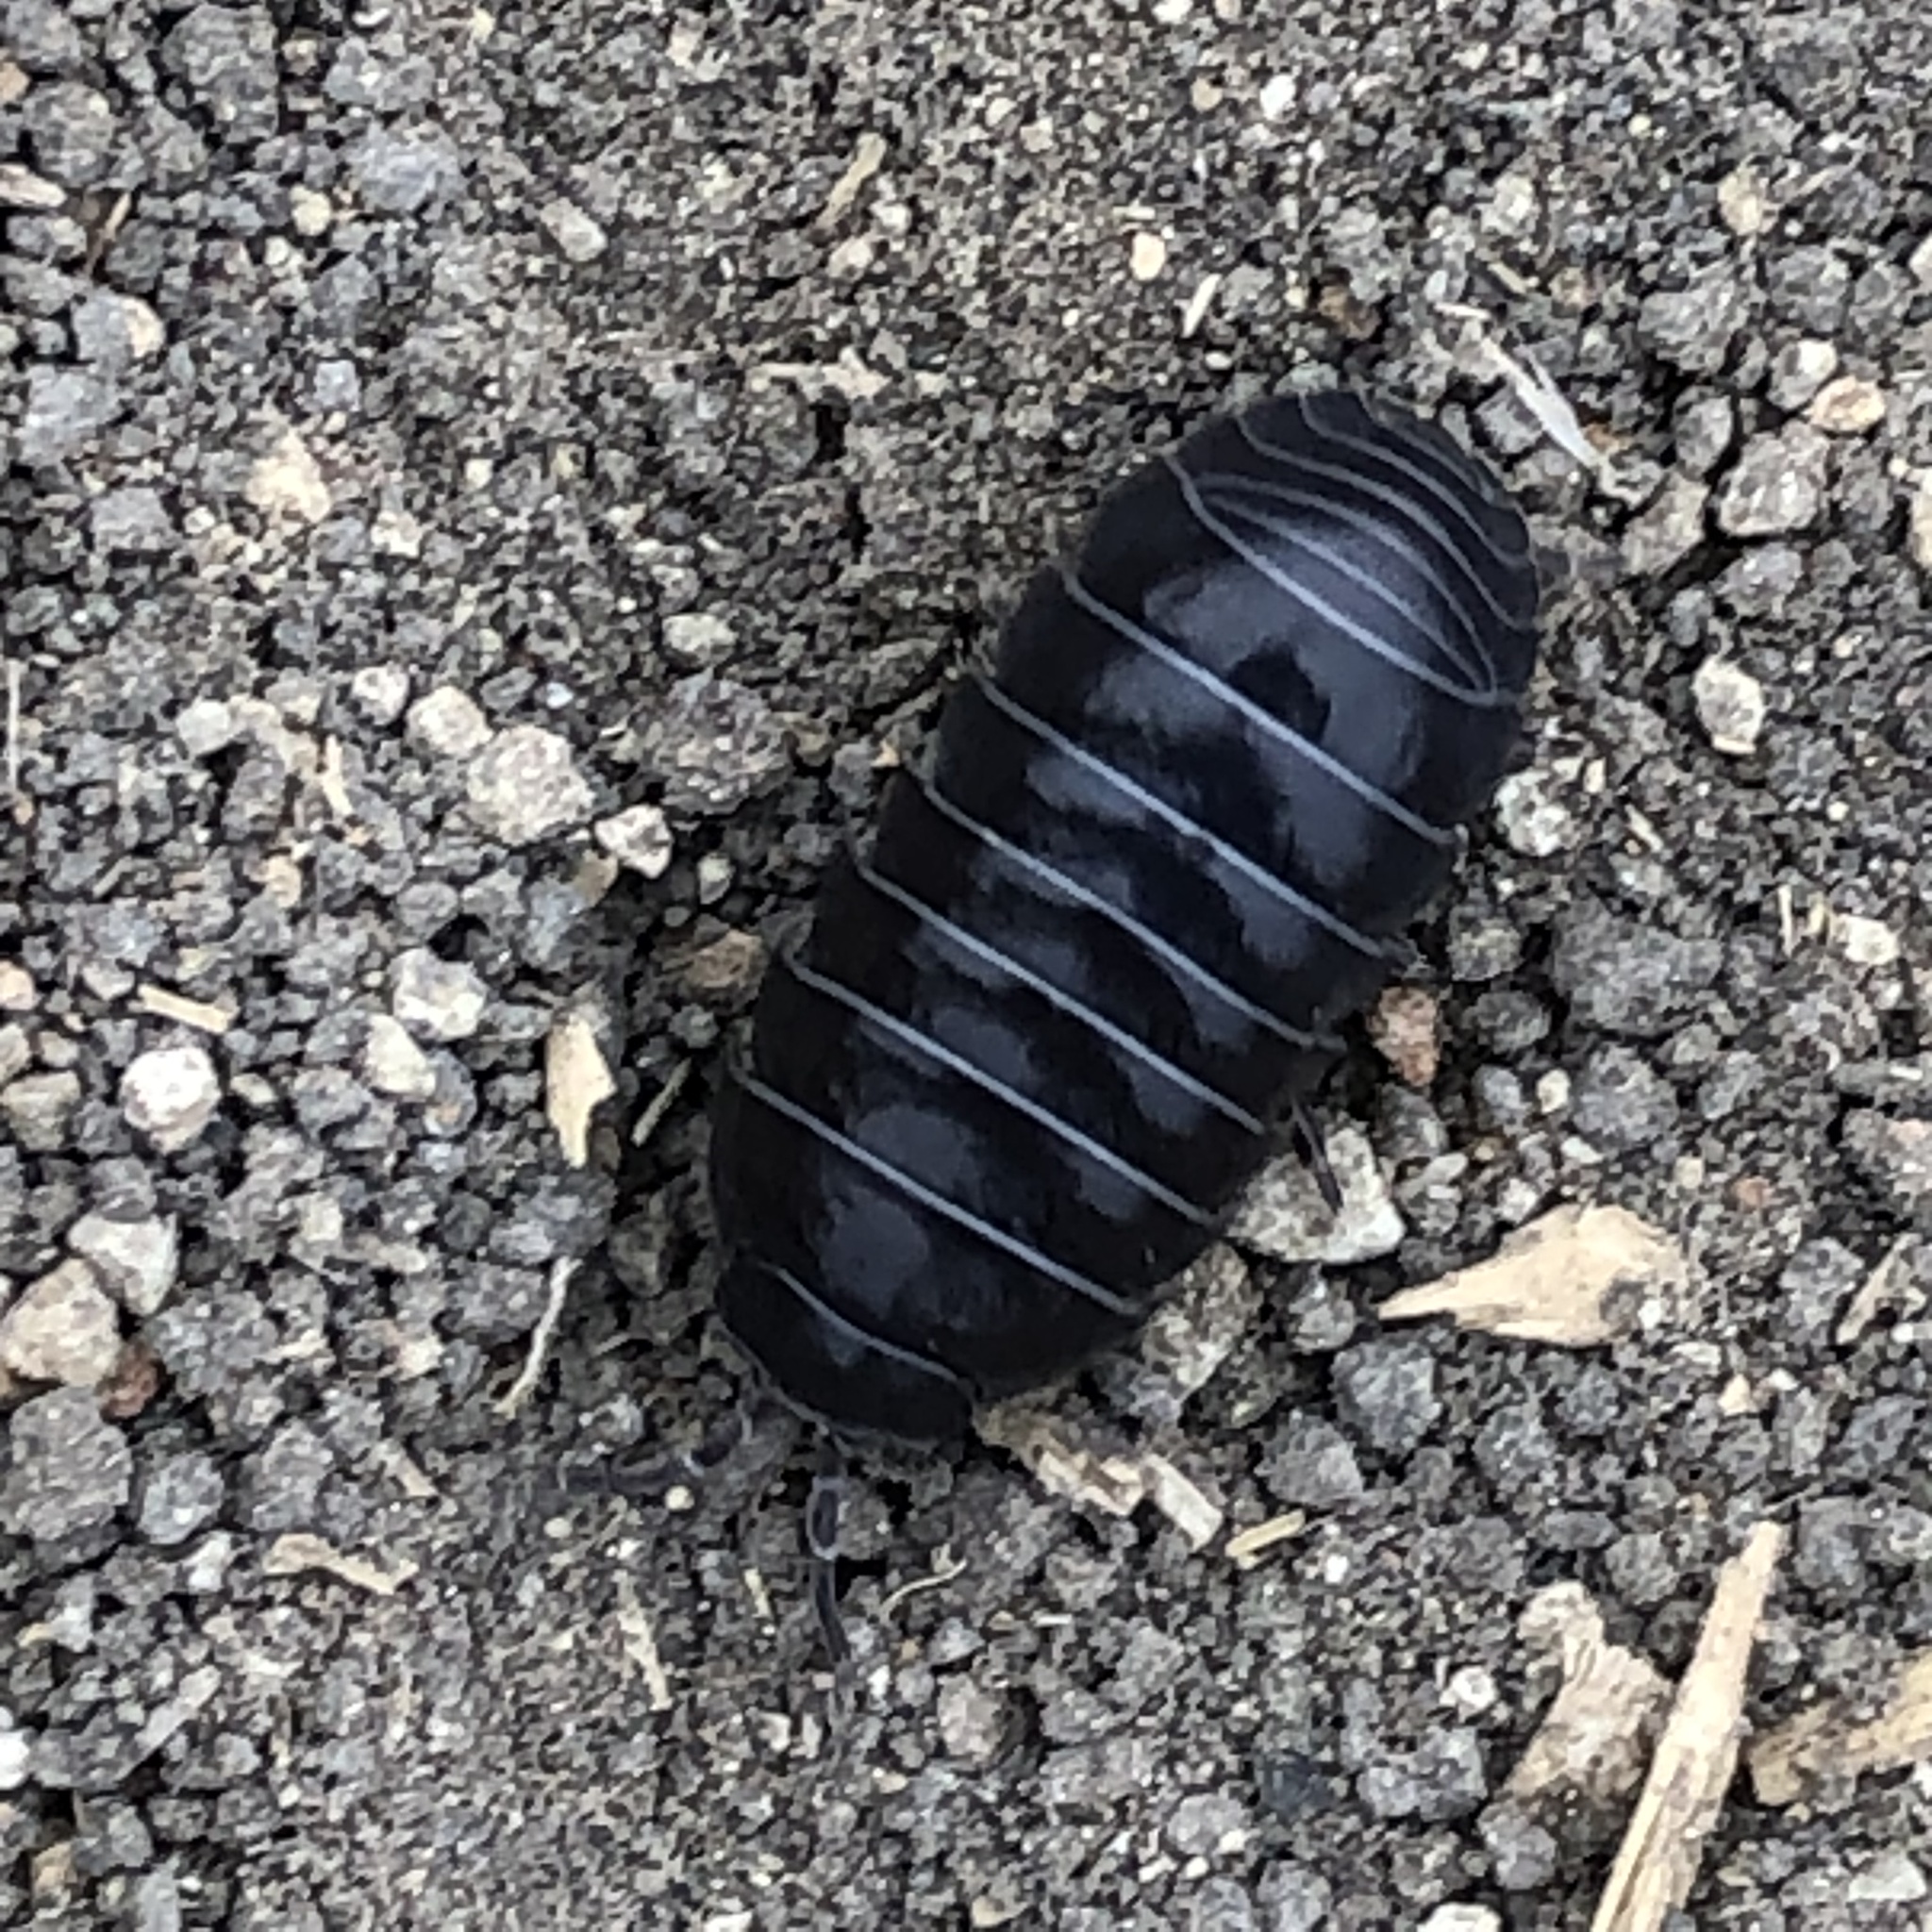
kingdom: Animalia
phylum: Arthropoda
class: Malacostraca
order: Isopoda
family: Armadillidiidae
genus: Armadillidium
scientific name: Armadillidium vulgare
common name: Common pill woodlouse
